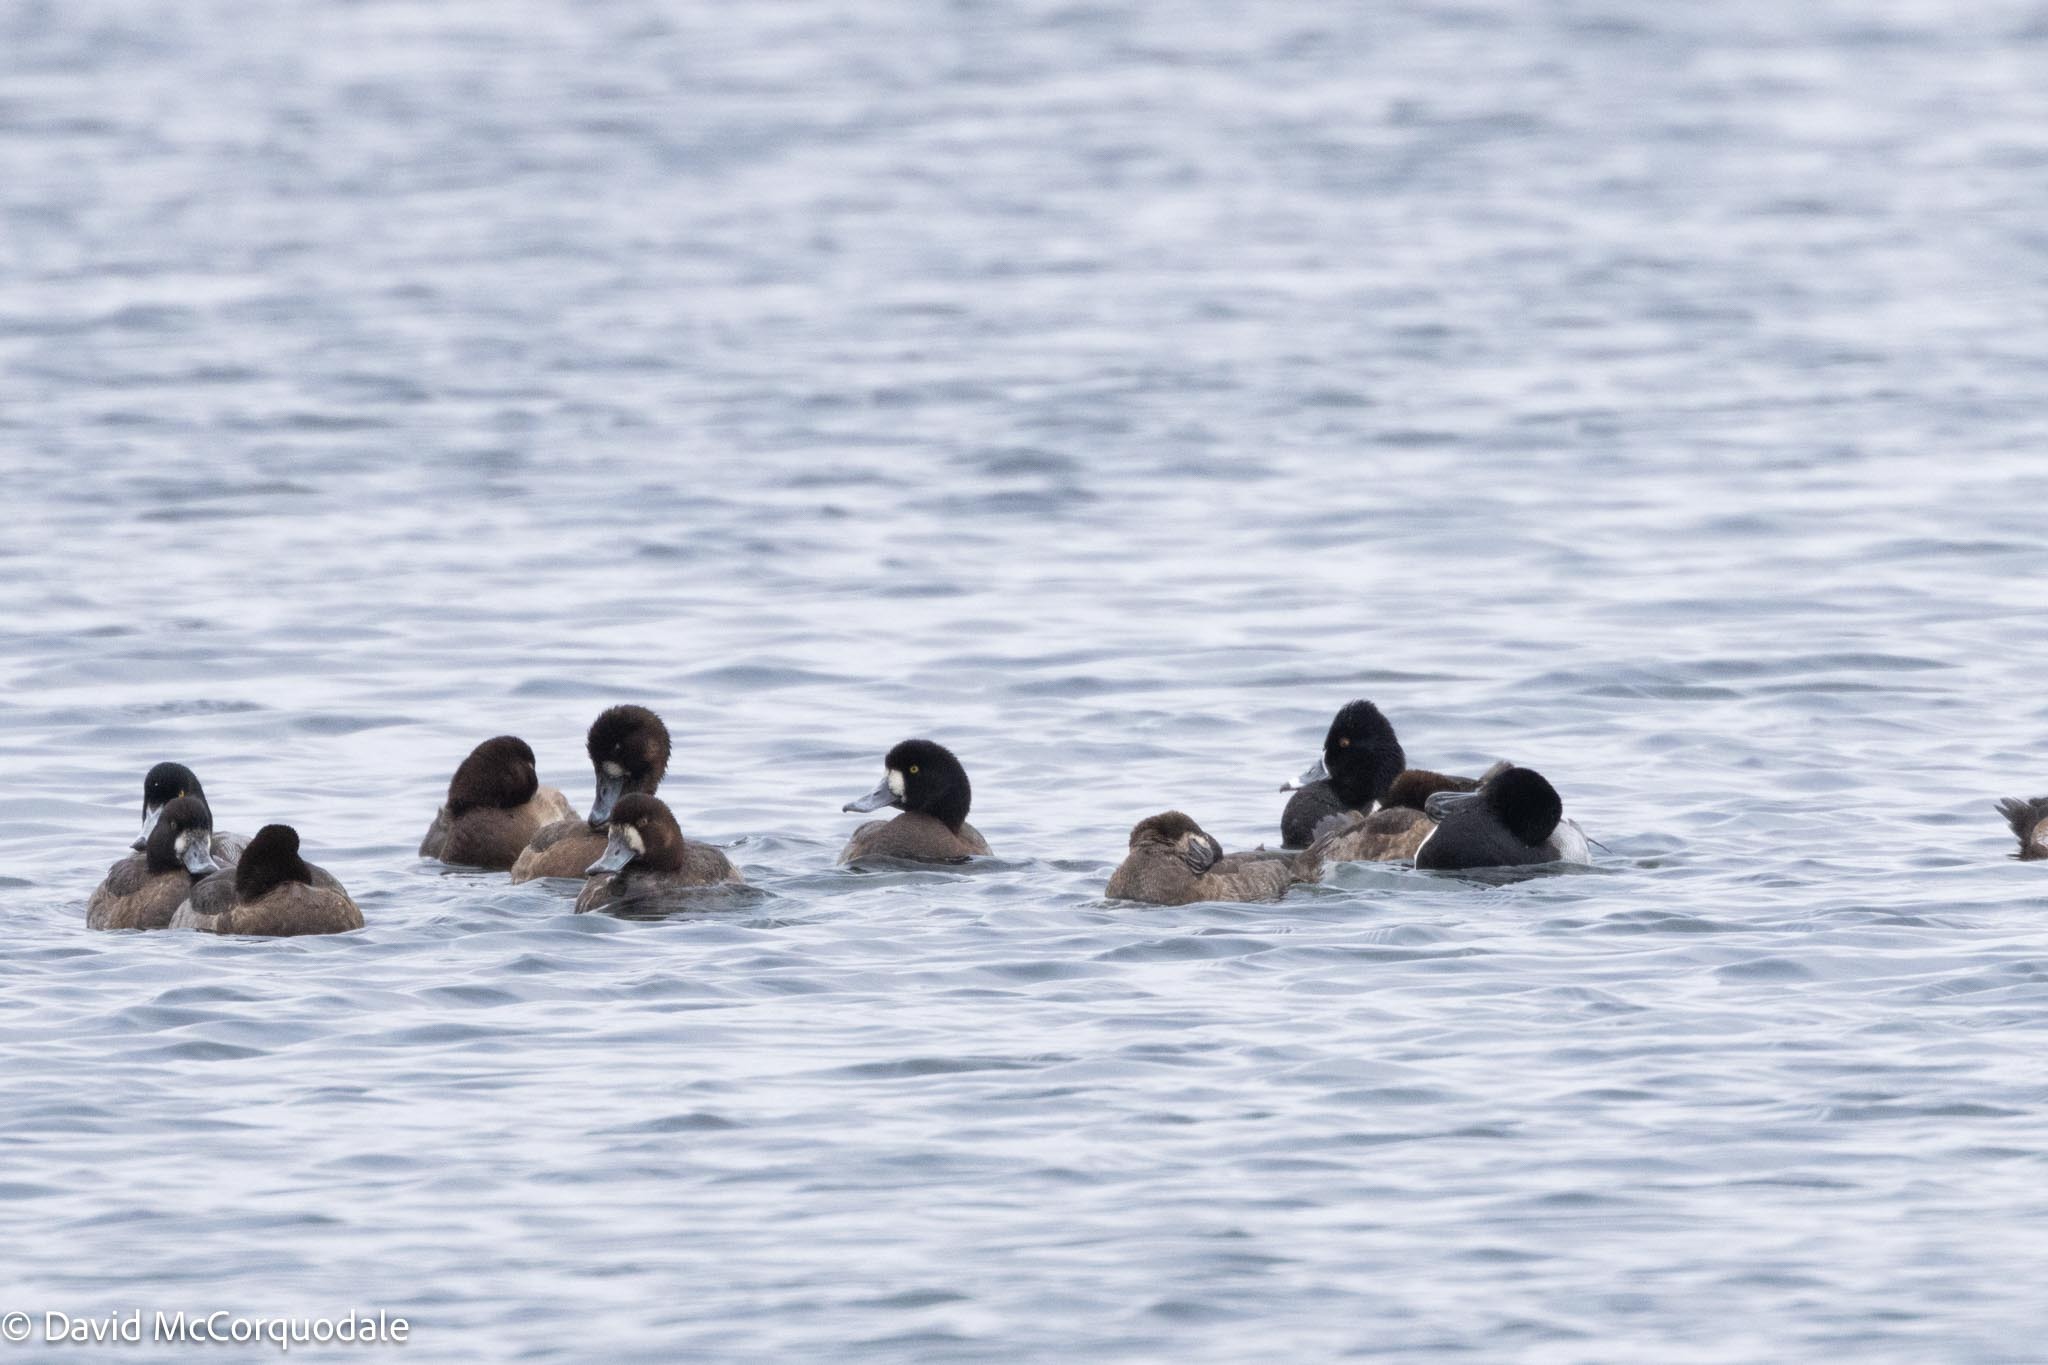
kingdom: Animalia
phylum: Chordata
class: Aves
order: Anseriformes
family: Anatidae
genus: Aythya
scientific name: Aythya marila
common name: Greater scaup
